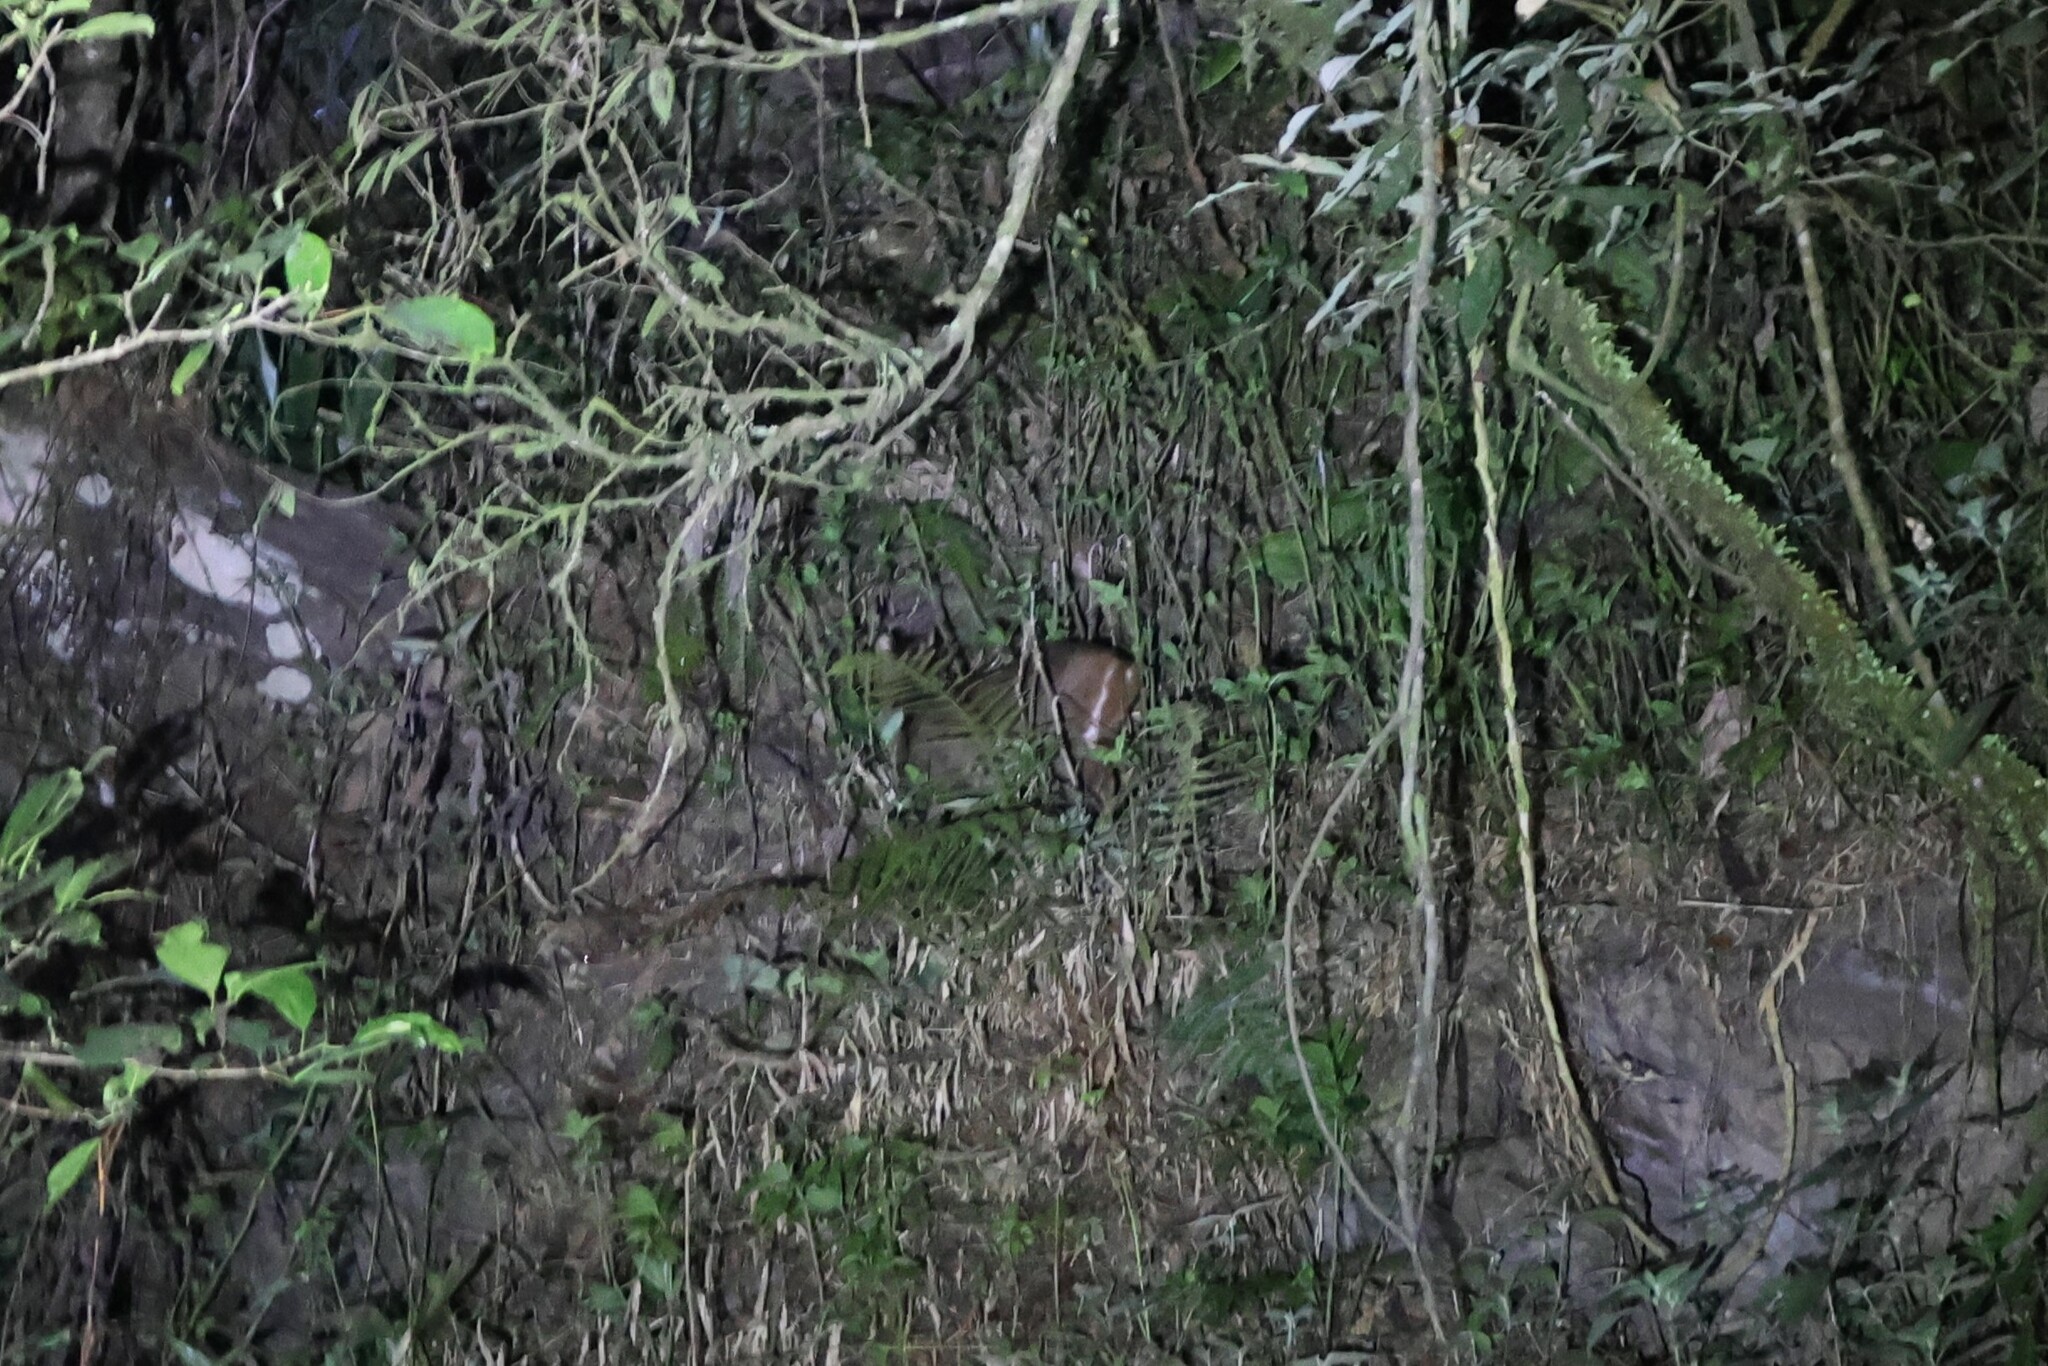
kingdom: Animalia
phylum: Chordata
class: Mammalia
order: Artiodactyla
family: Cervidae
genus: Muntiacus
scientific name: Muntiacus reevesi
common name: Reeves' muntjac
